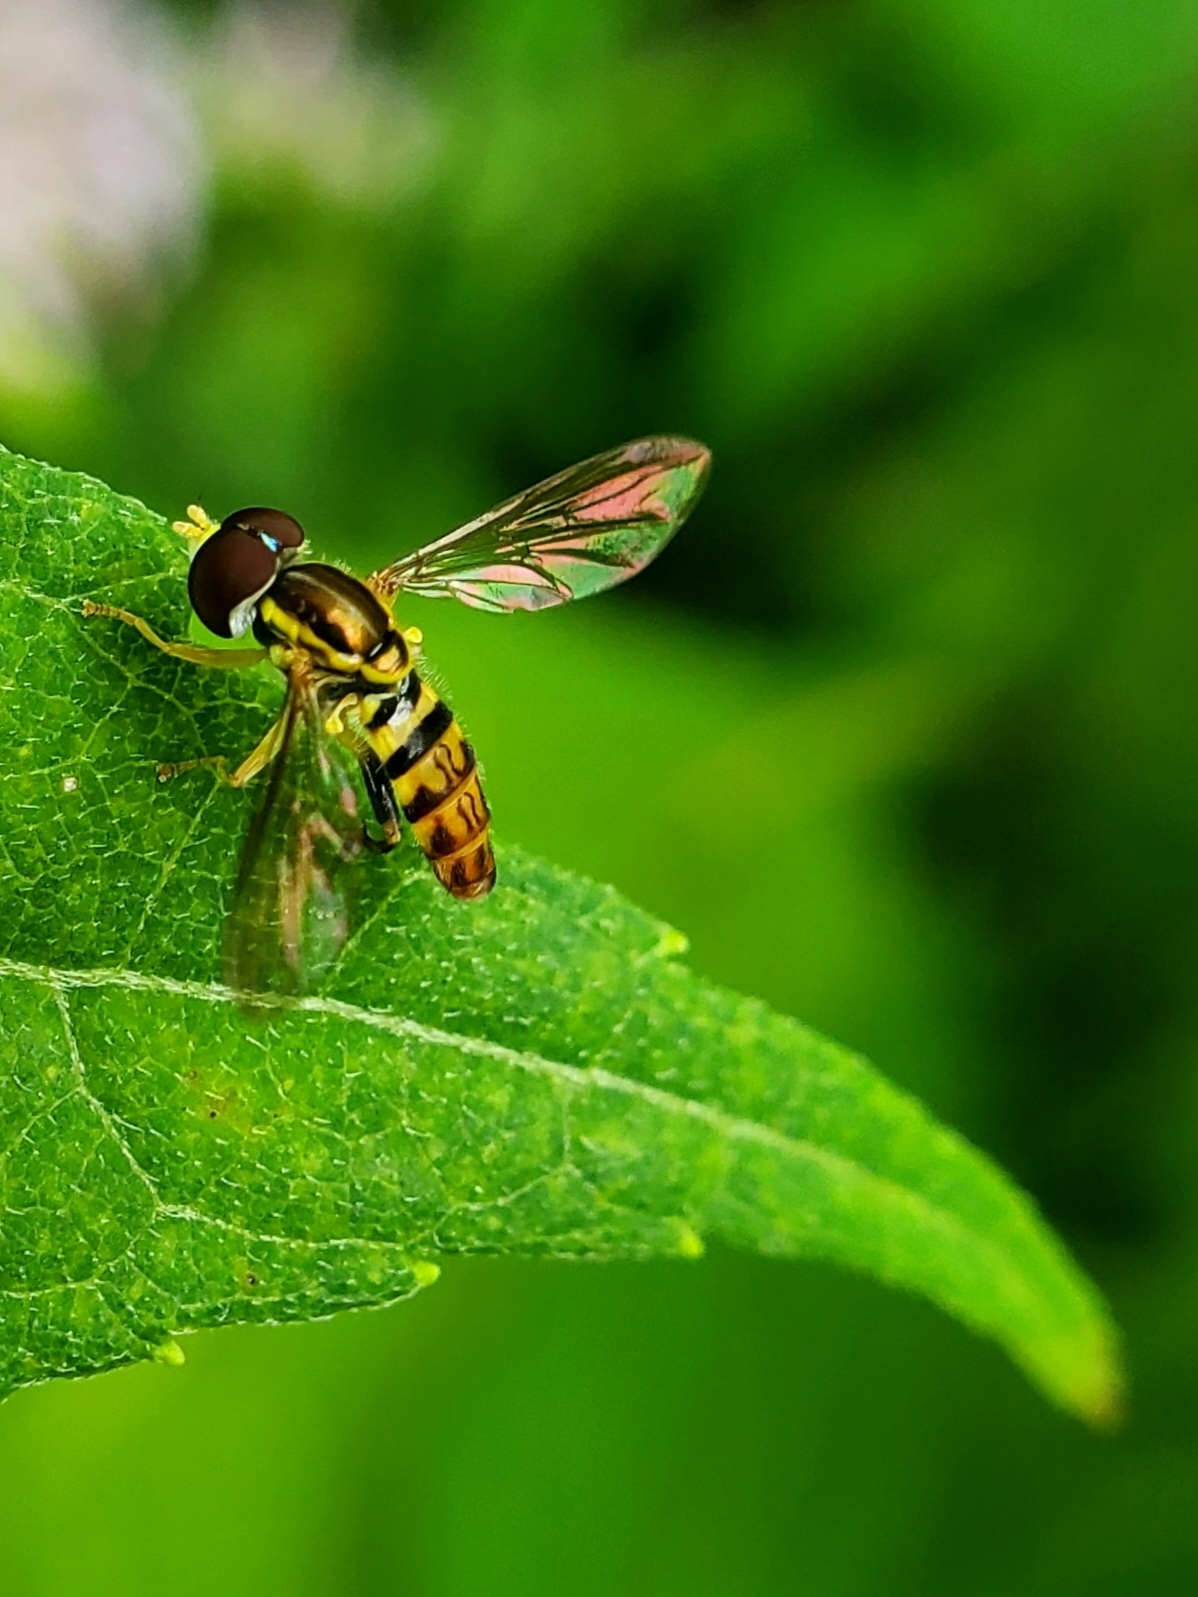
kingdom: Animalia
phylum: Arthropoda
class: Insecta
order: Diptera
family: Syrphidae
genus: Toxomerus
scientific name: Toxomerus geminatus
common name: Eastern calligrapher
